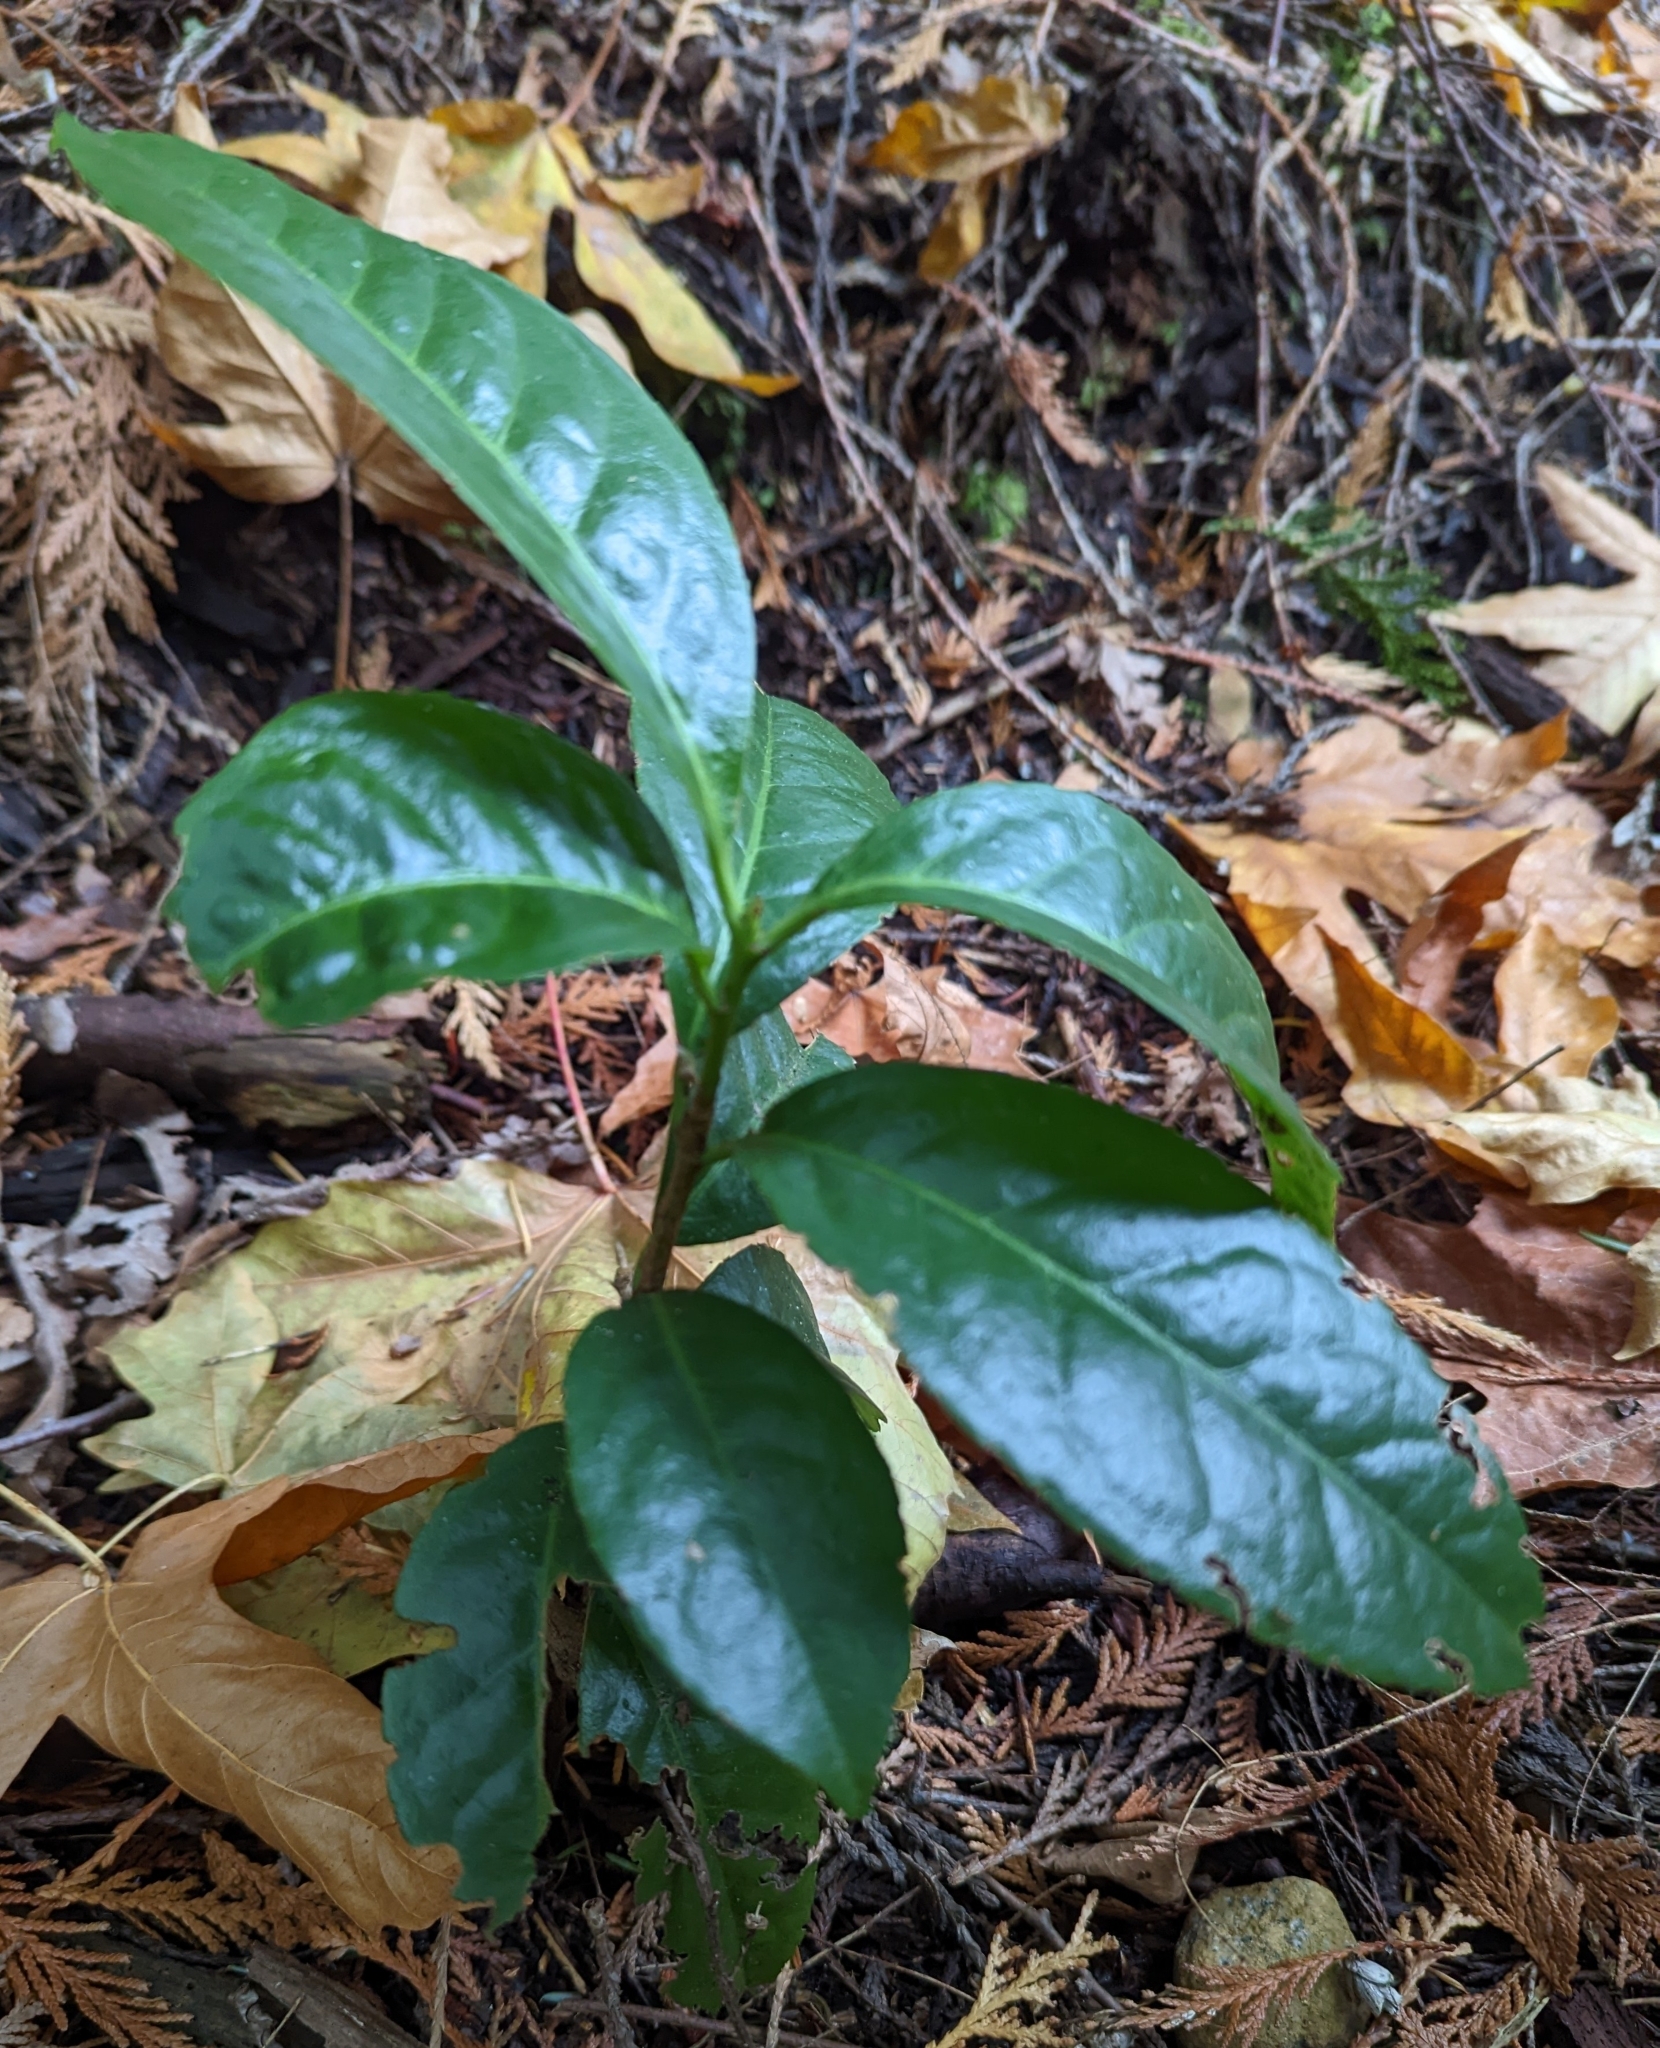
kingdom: Plantae
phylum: Tracheophyta
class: Magnoliopsida
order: Rosales
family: Rosaceae
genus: Prunus
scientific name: Prunus laurocerasus
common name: Cherry laurel
